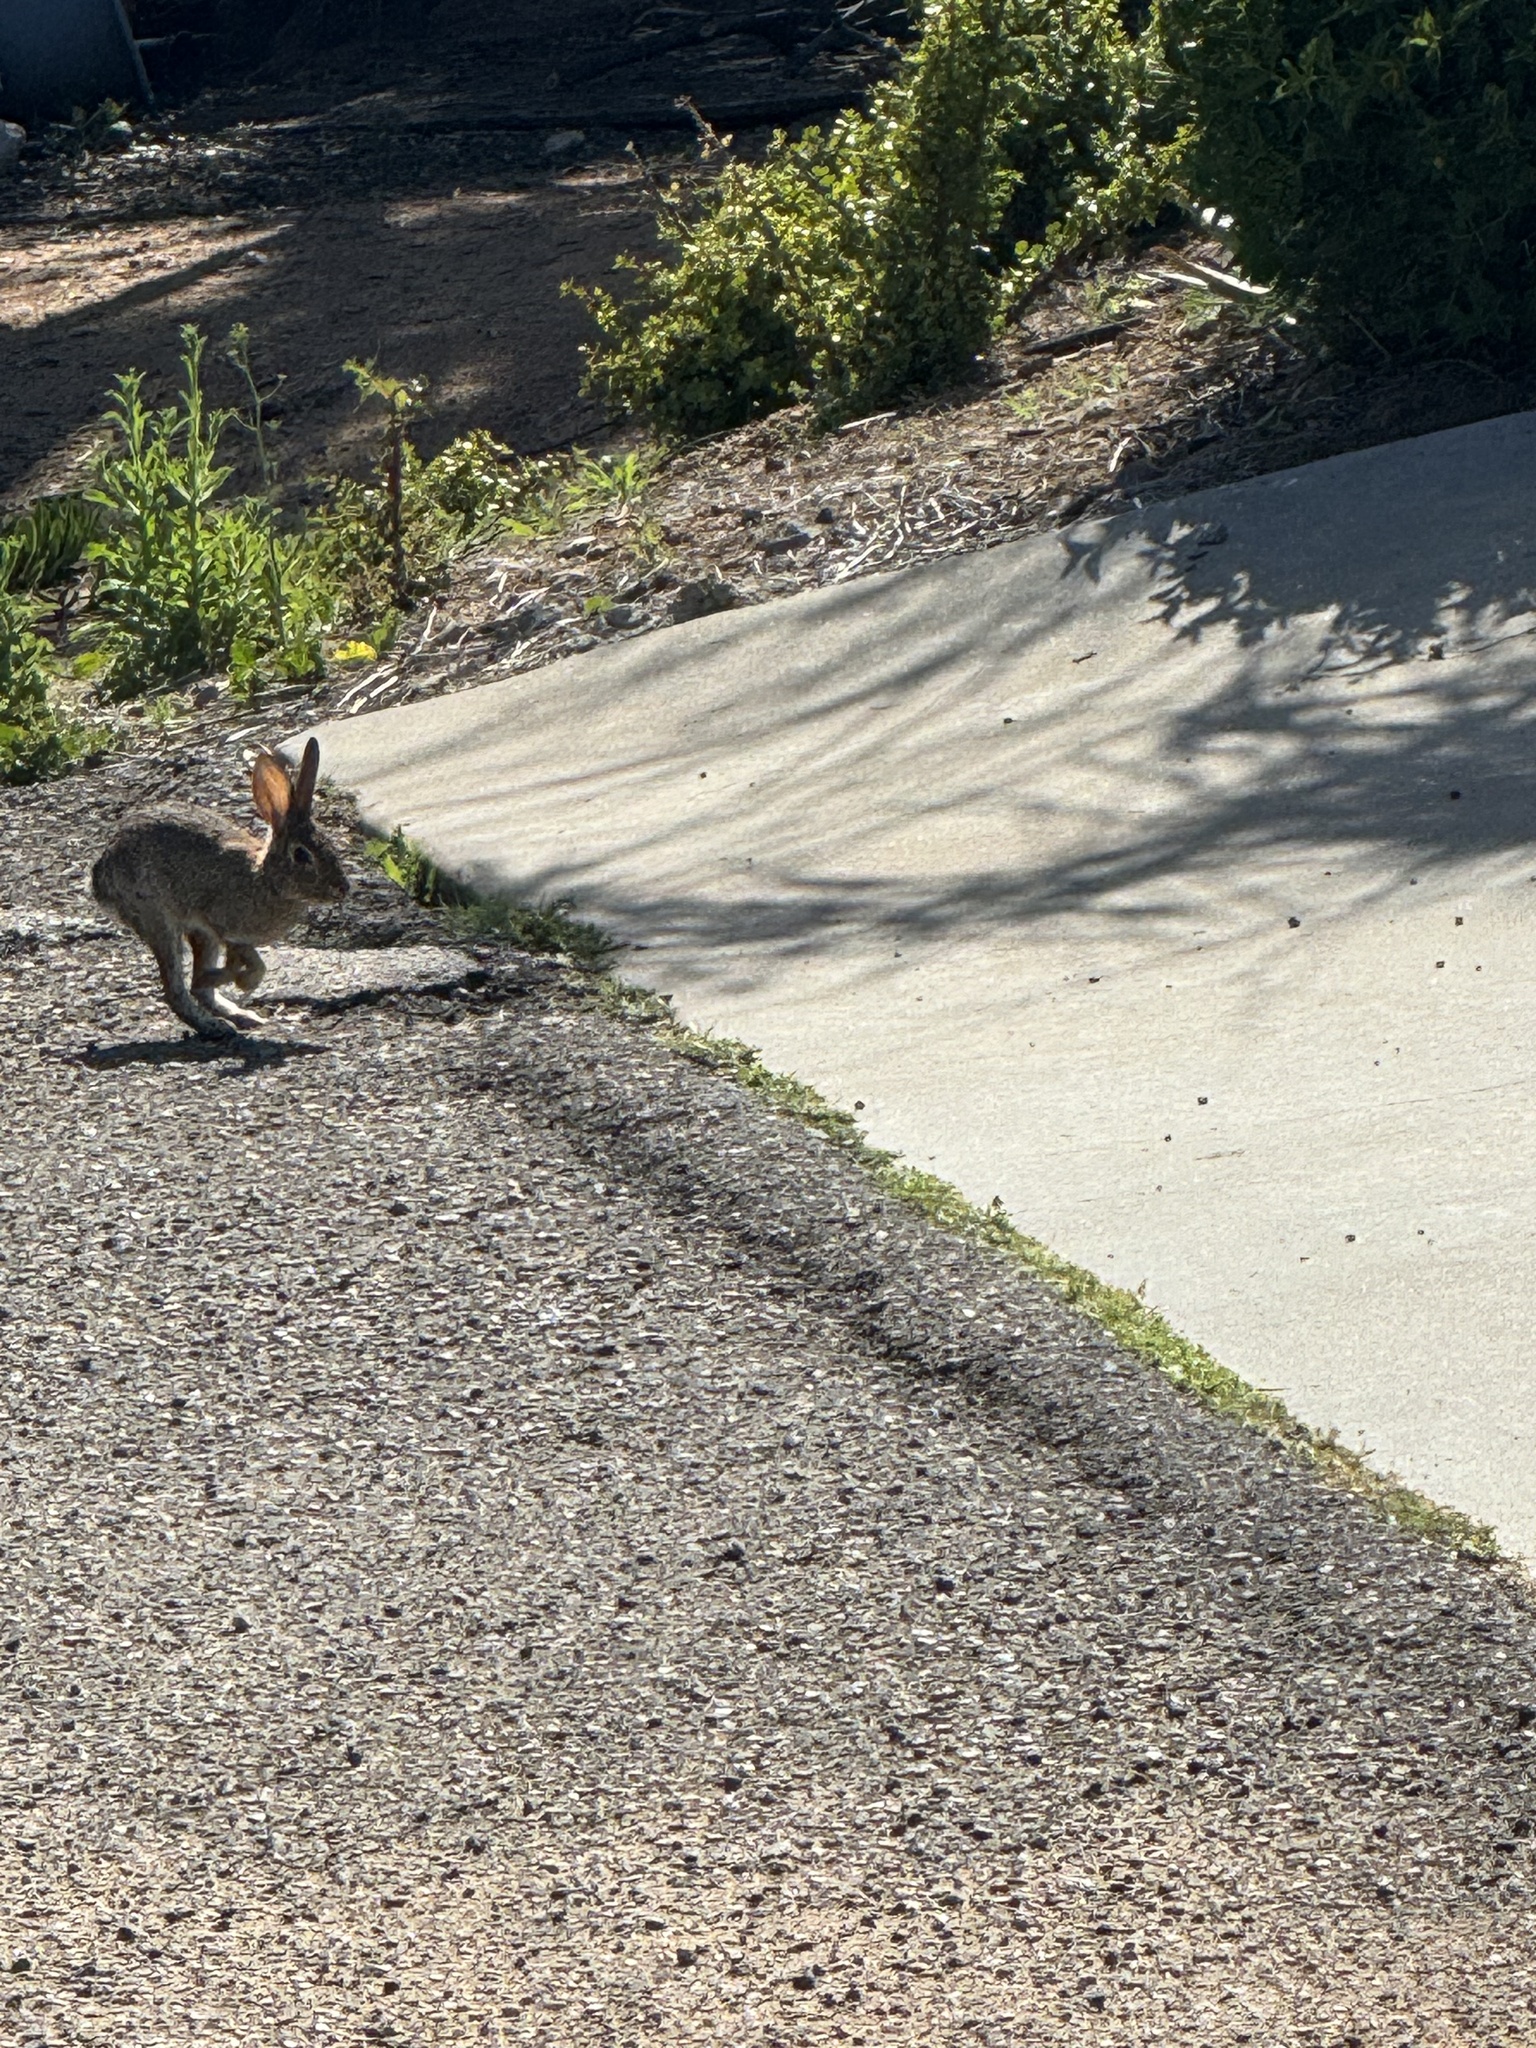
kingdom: Animalia
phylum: Chordata
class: Mammalia
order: Lagomorpha
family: Leporidae
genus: Sylvilagus
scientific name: Sylvilagus audubonii
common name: Desert cottontail
